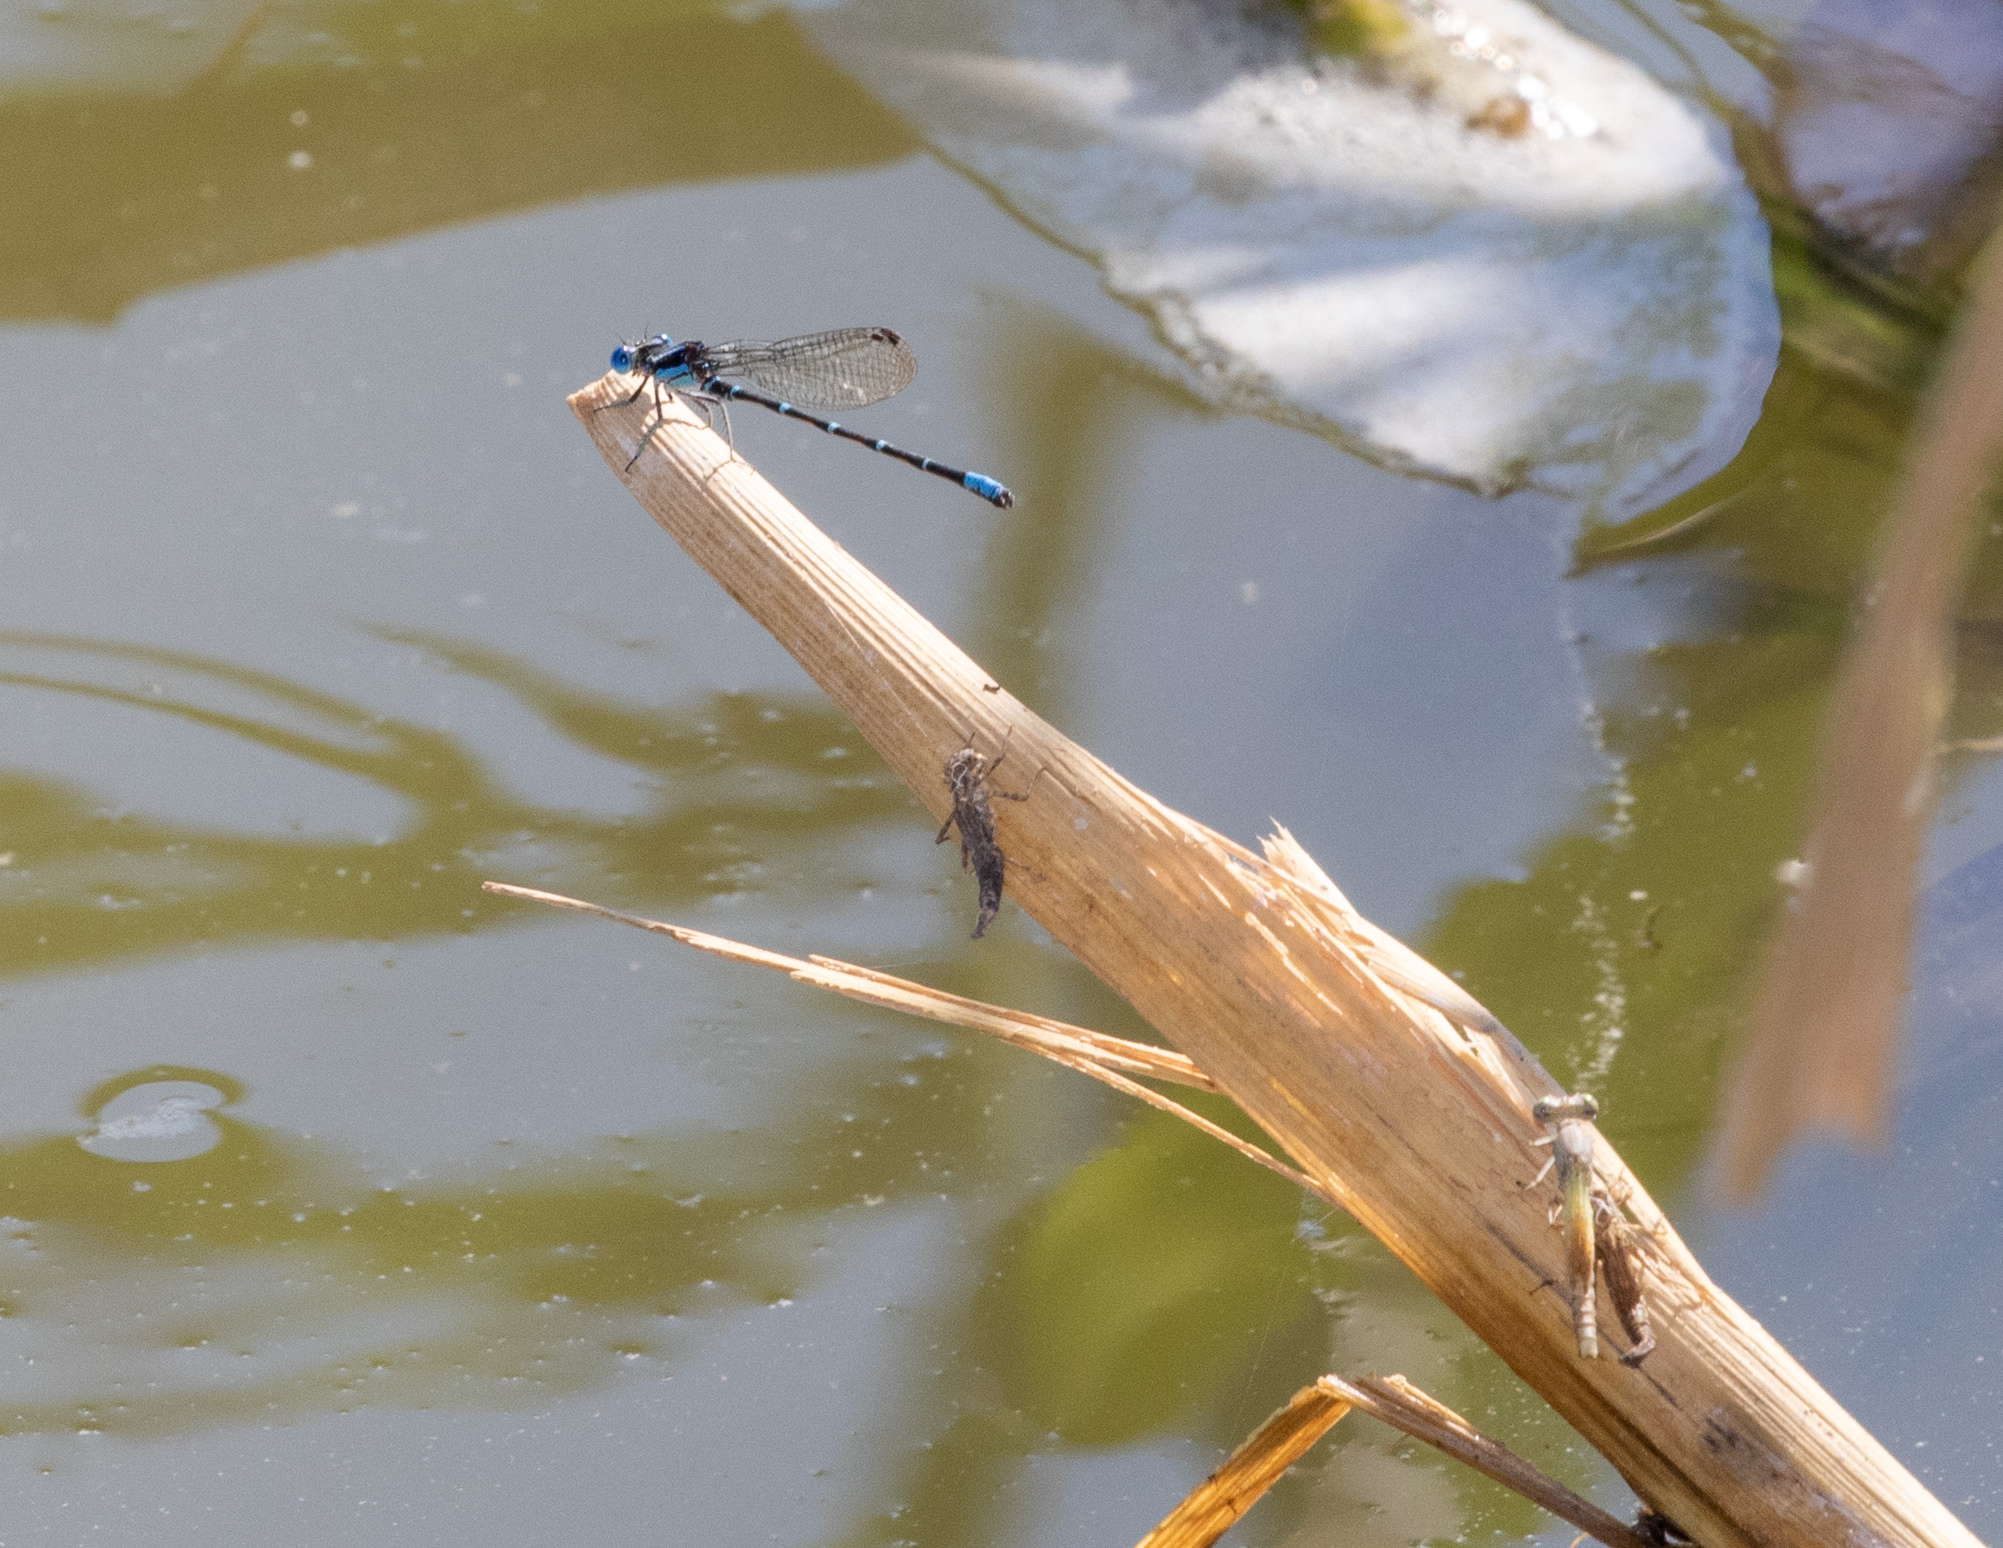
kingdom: Animalia
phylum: Arthropoda
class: Insecta
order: Odonata
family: Coenagrionidae
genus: Argia
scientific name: Argia sedula
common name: Blue-ringed dancer
